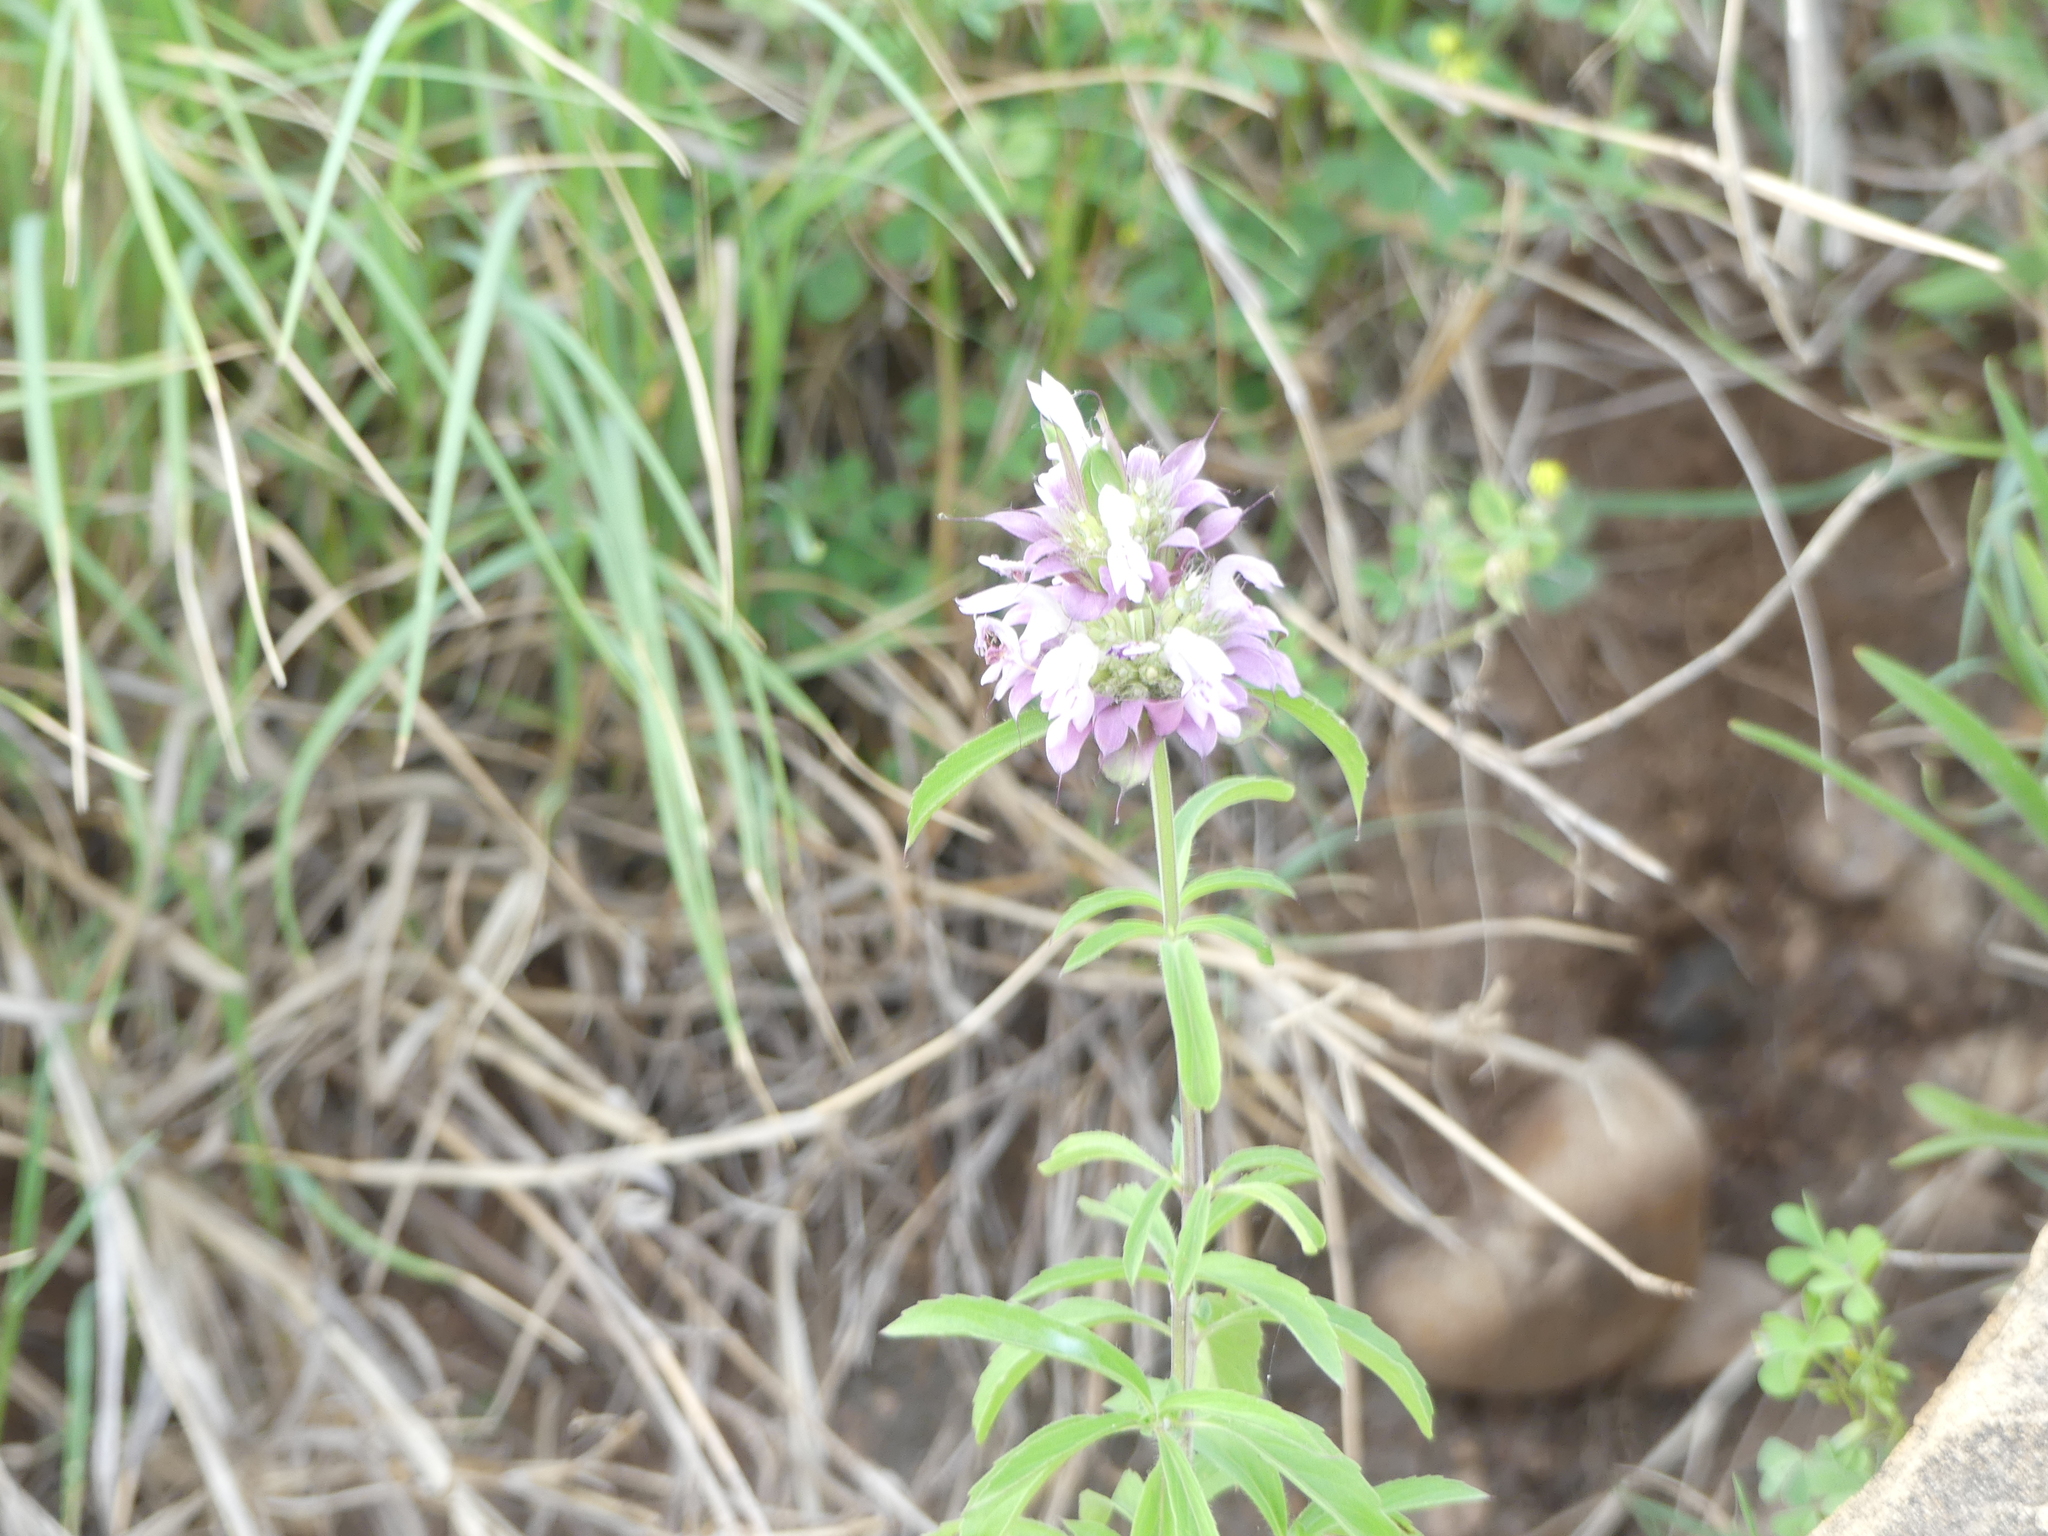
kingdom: Plantae
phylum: Tracheophyta
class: Magnoliopsida
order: Lamiales
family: Lamiaceae
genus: Monarda
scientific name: Monarda citriodora
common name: Lemon beebalm
